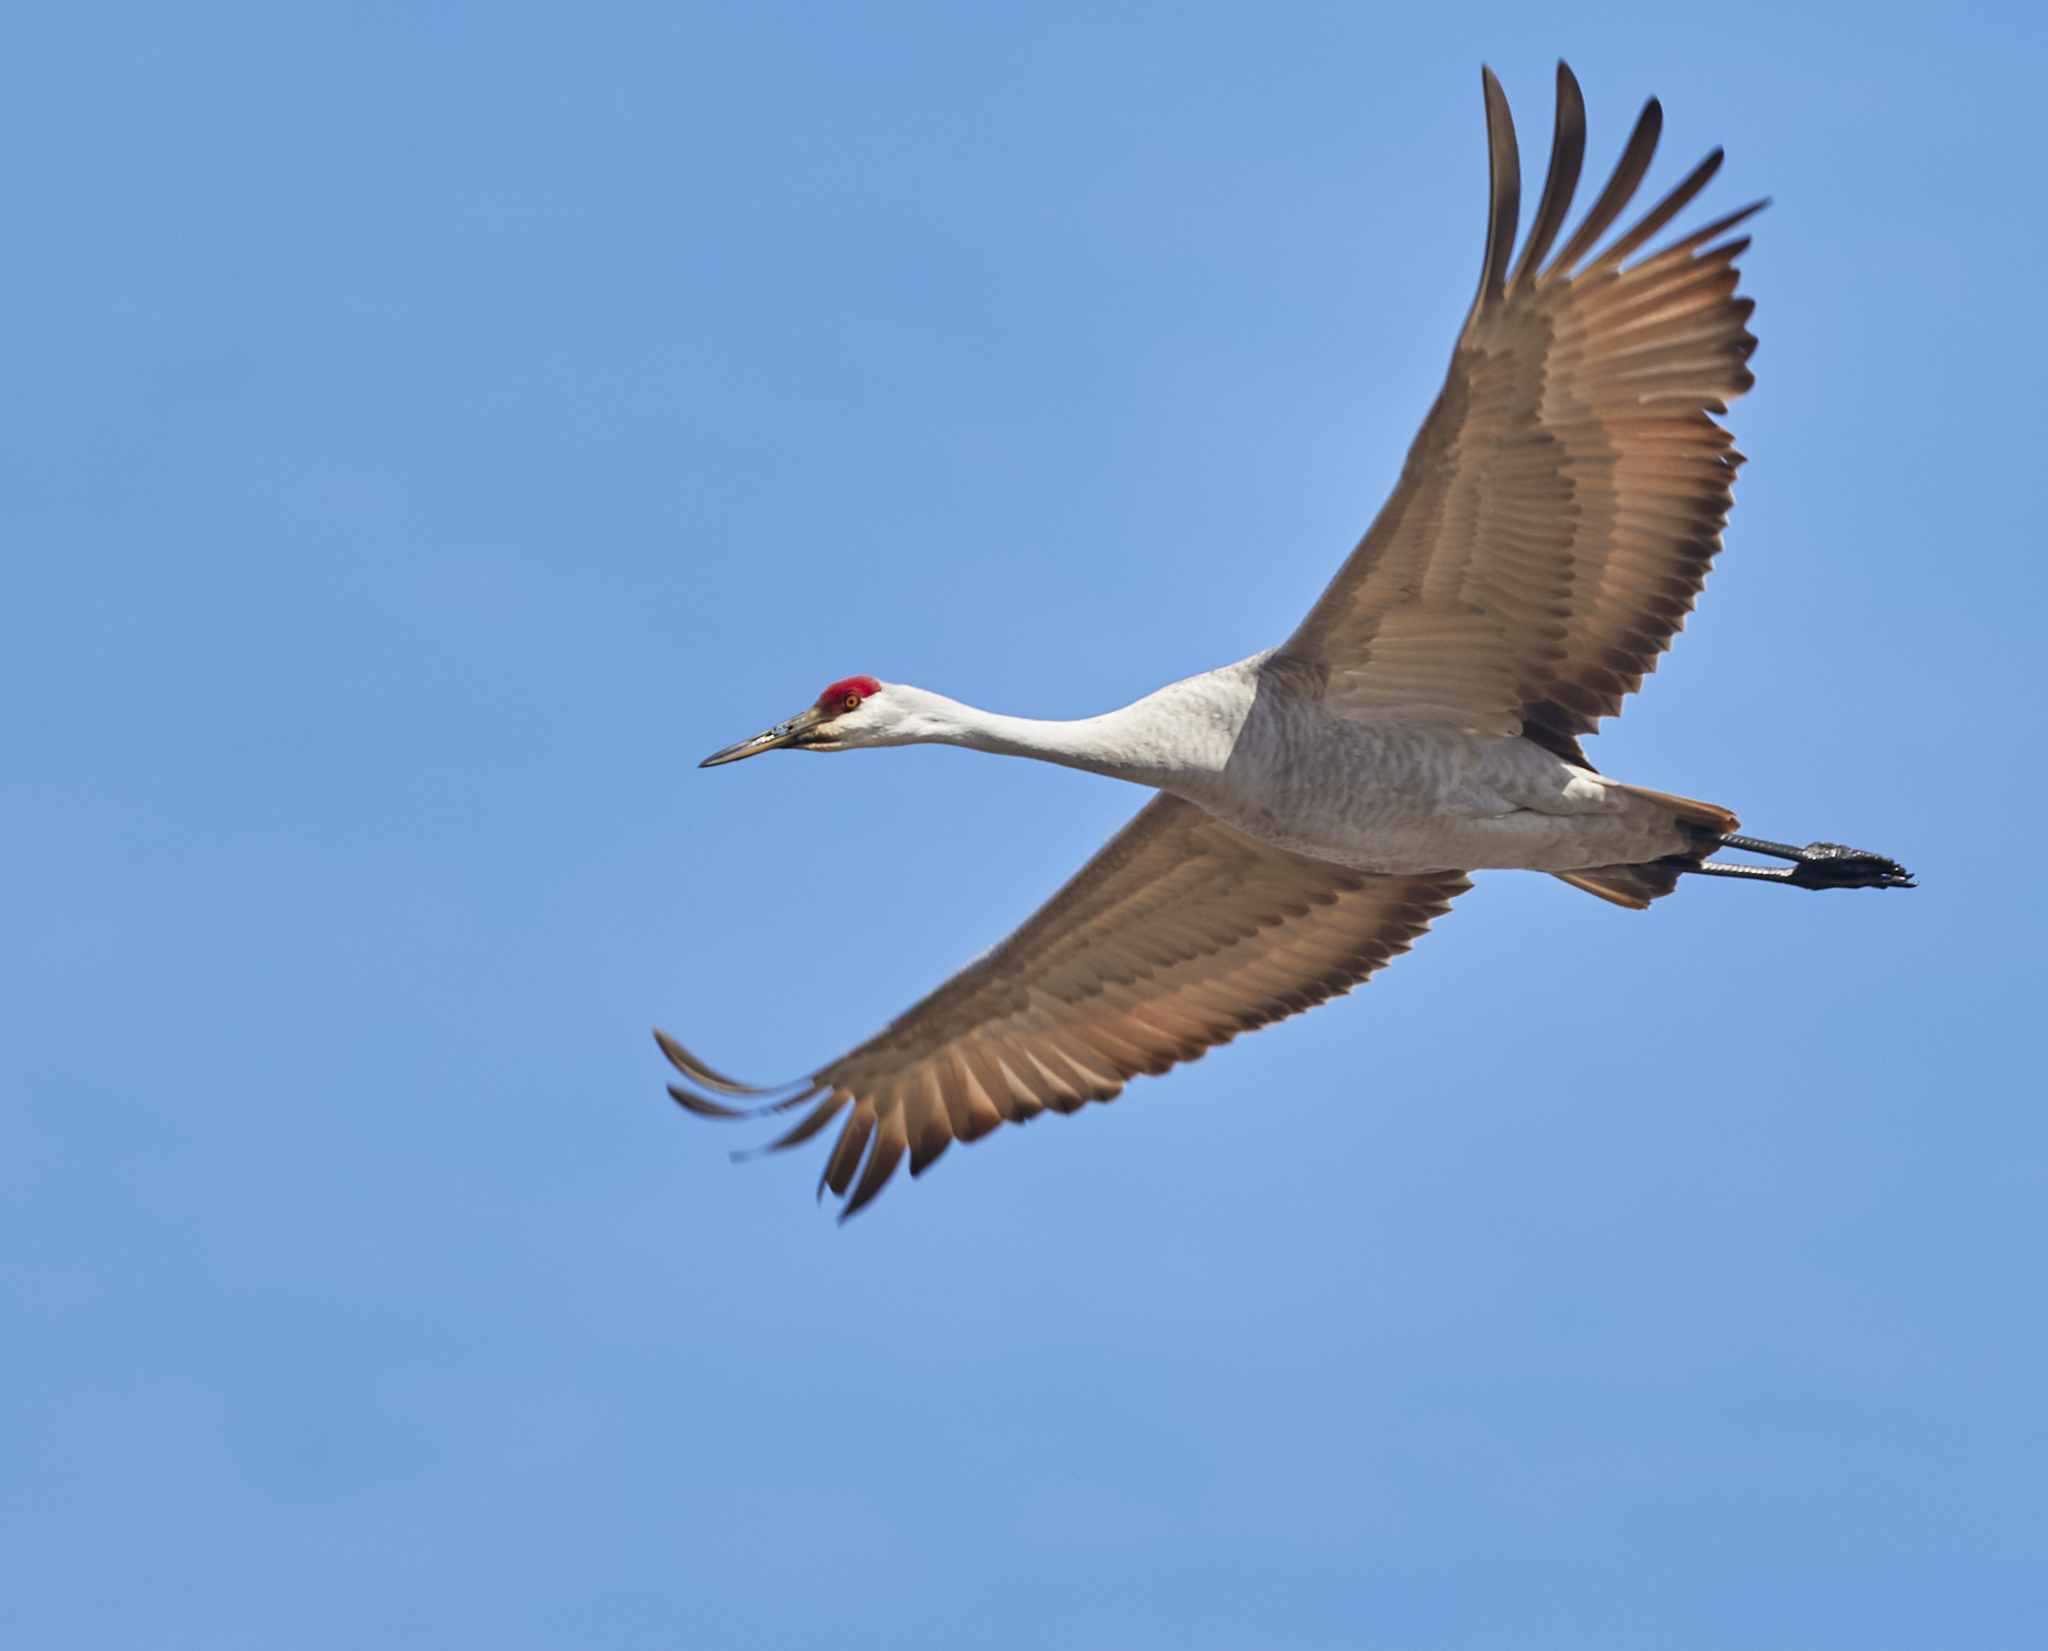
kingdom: Animalia
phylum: Chordata
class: Aves
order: Gruiformes
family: Gruidae
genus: Grus
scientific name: Grus canadensis
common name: Sandhill crane
